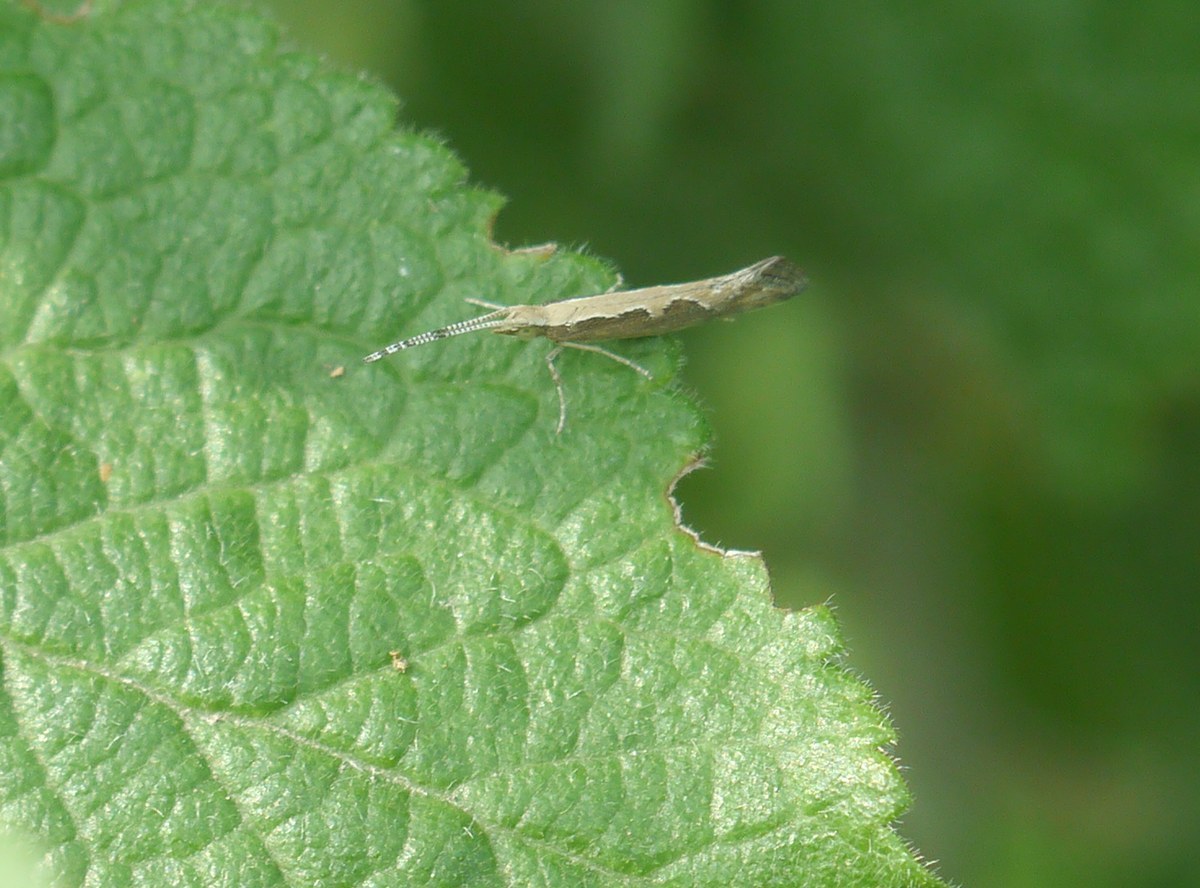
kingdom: Animalia
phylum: Arthropoda
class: Insecta
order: Lepidoptera
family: Plutellidae
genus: Plutella
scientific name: Plutella xylostella
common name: Diamond-back moth
